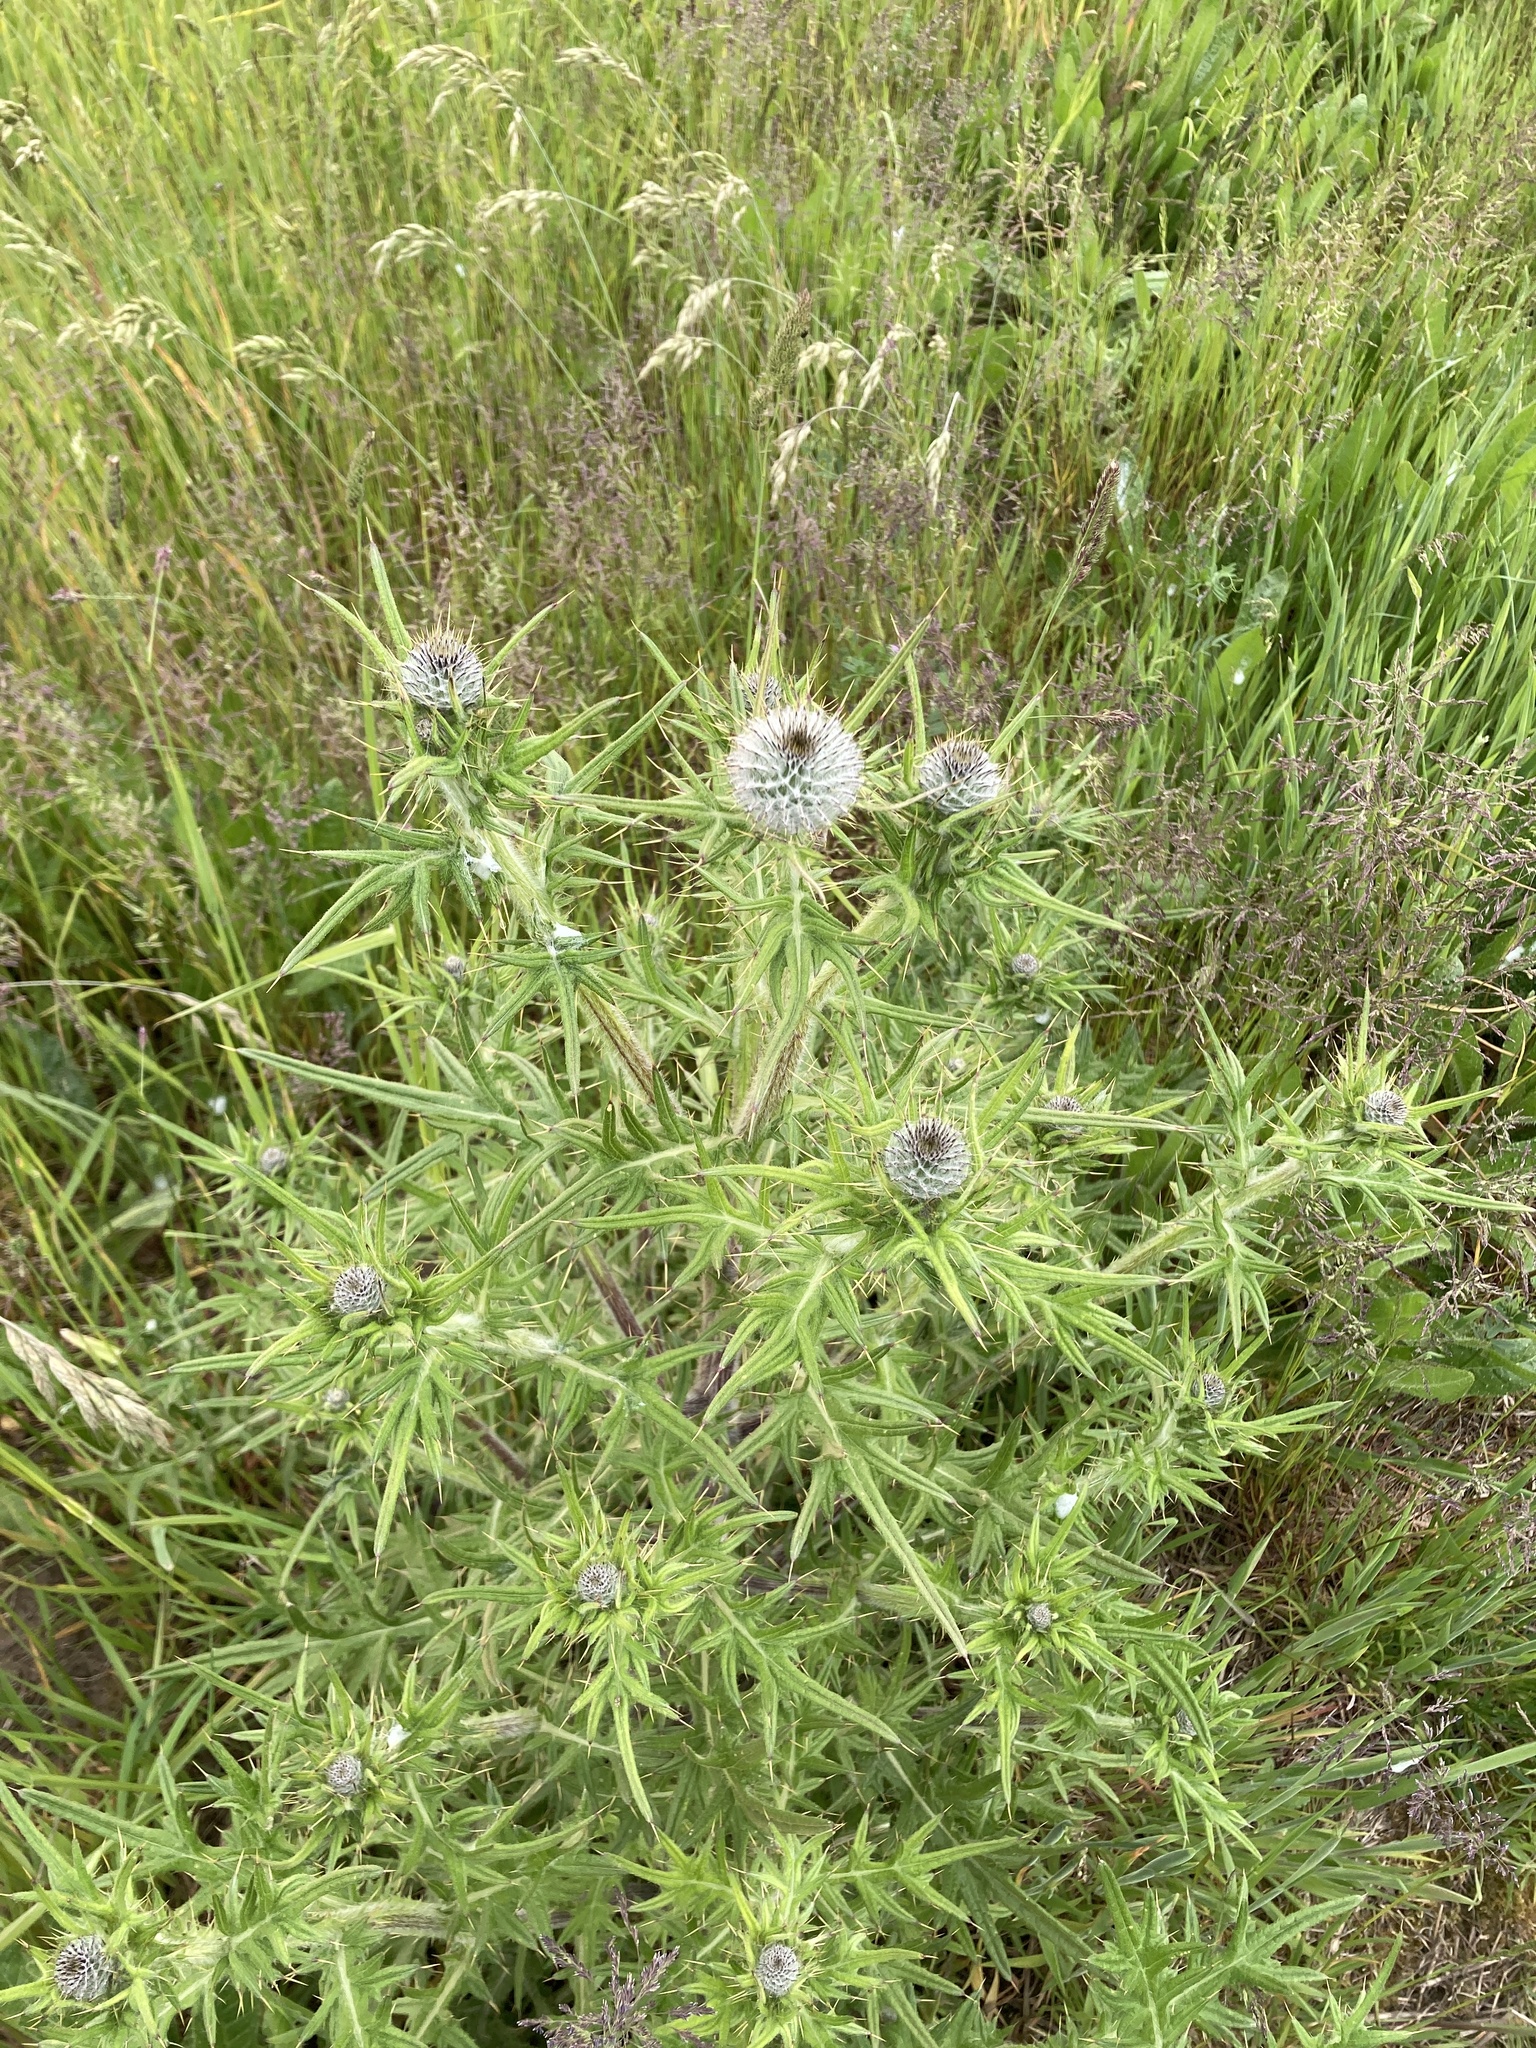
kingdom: Plantae
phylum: Tracheophyta
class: Magnoliopsida
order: Asterales
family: Asteraceae
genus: Cirsium
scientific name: Cirsium vulgare
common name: Bull thistle
